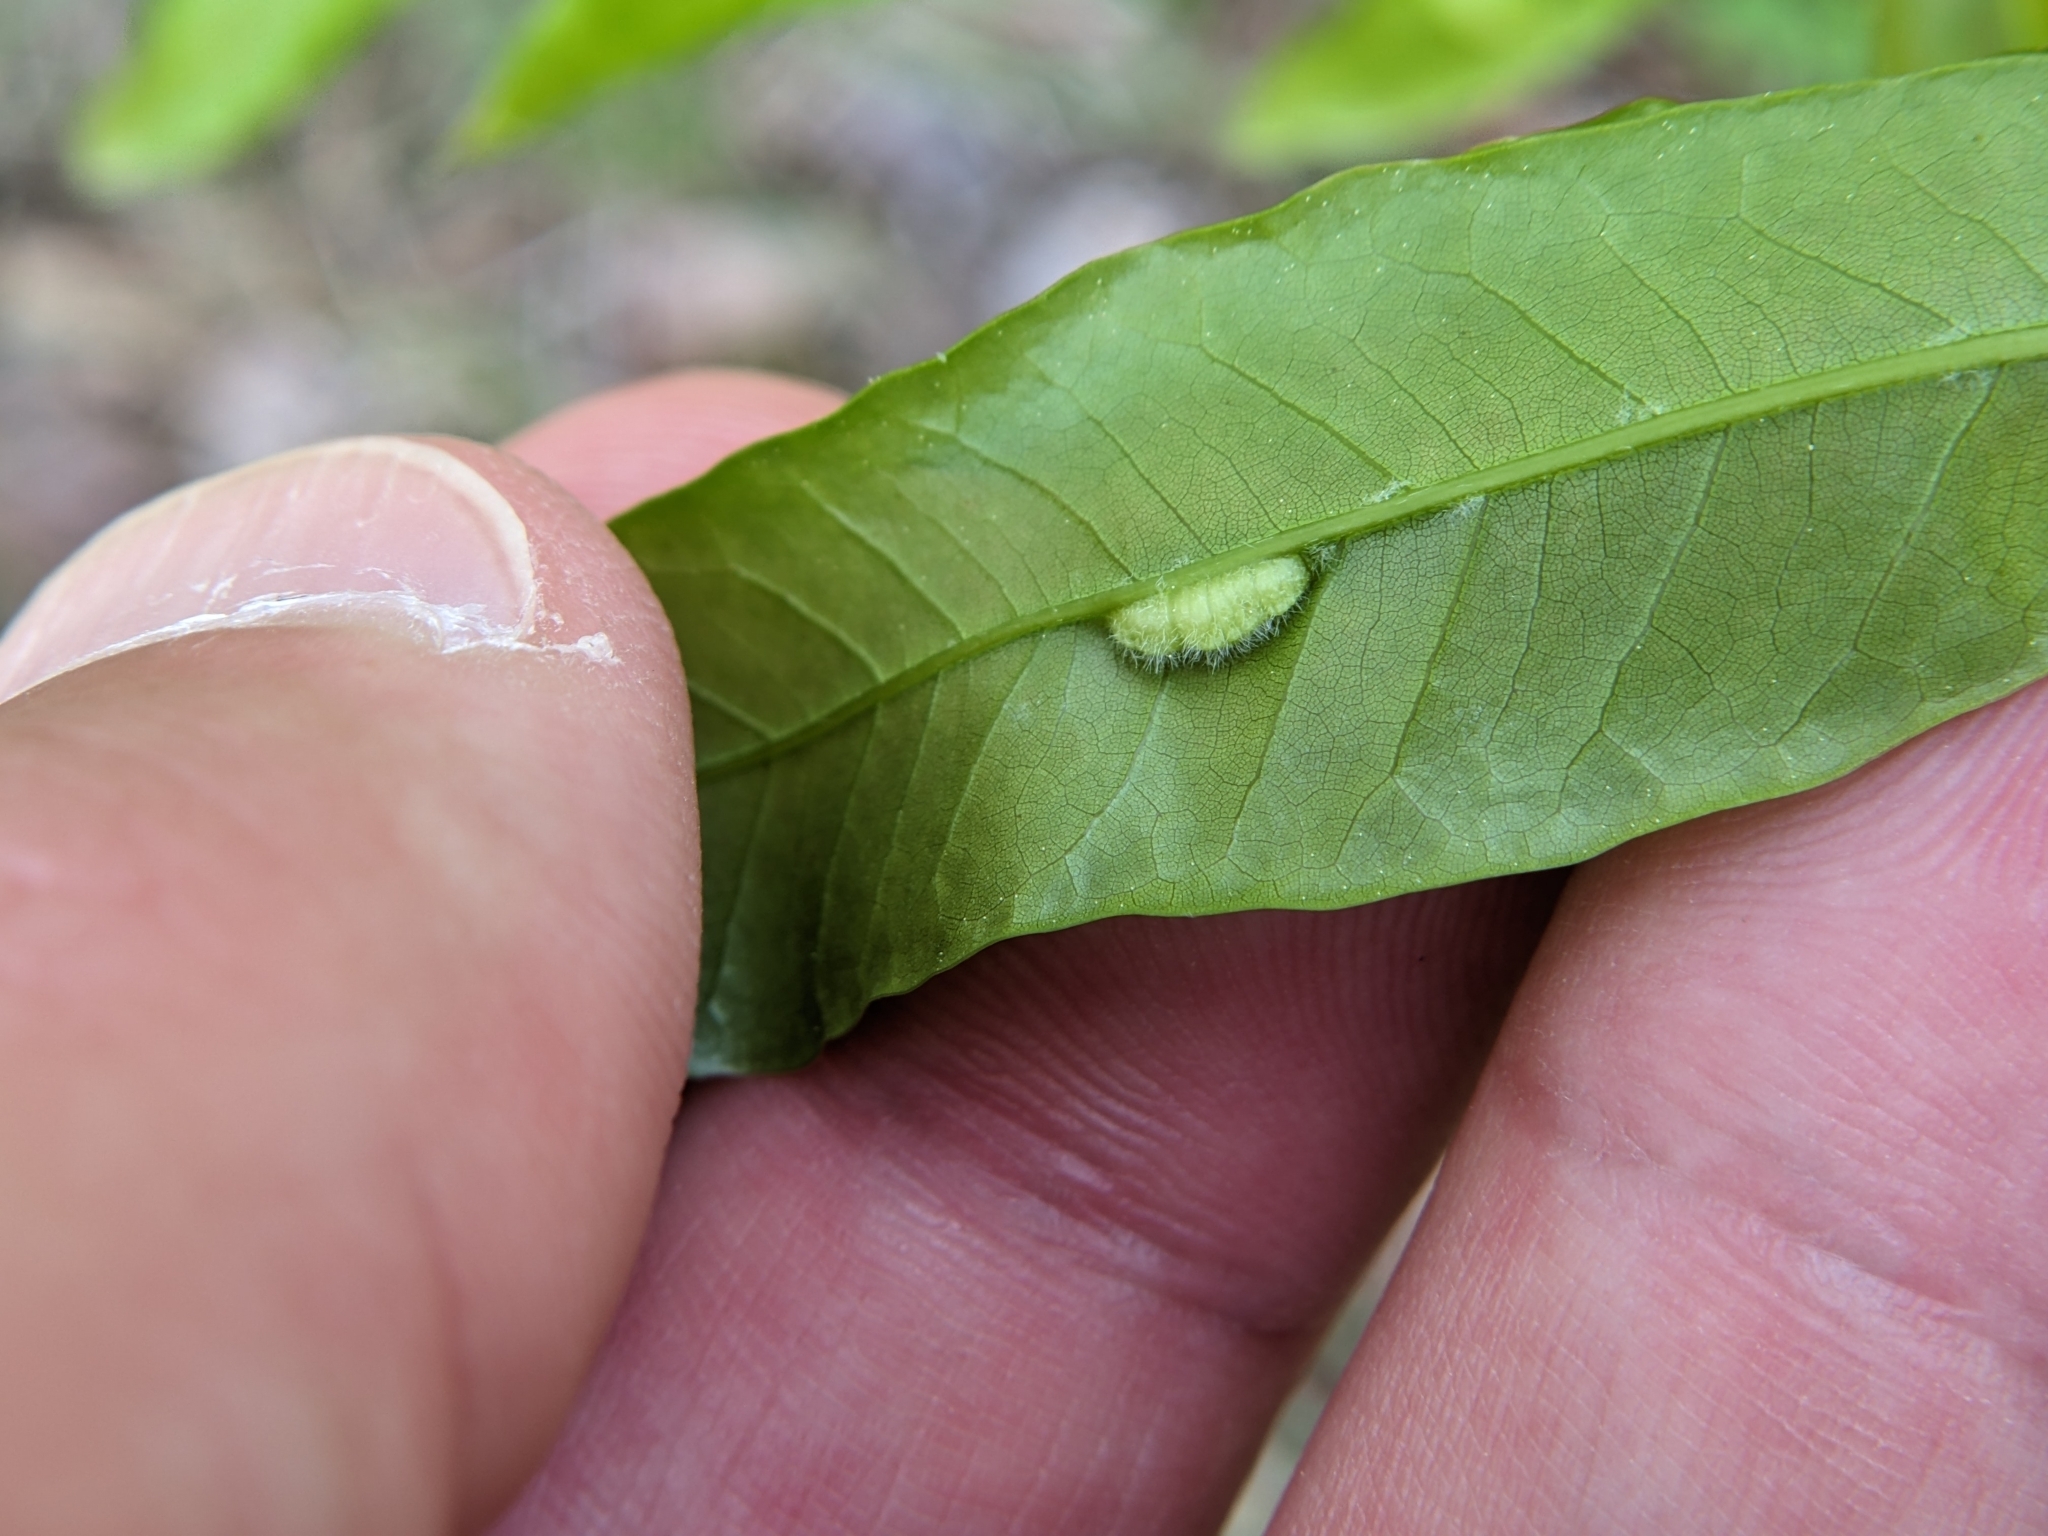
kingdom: Animalia
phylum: Arthropoda
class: Insecta
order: Diptera
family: Cecidomyiidae
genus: Macrodiplosis
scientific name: Macrodiplosis niveipila
